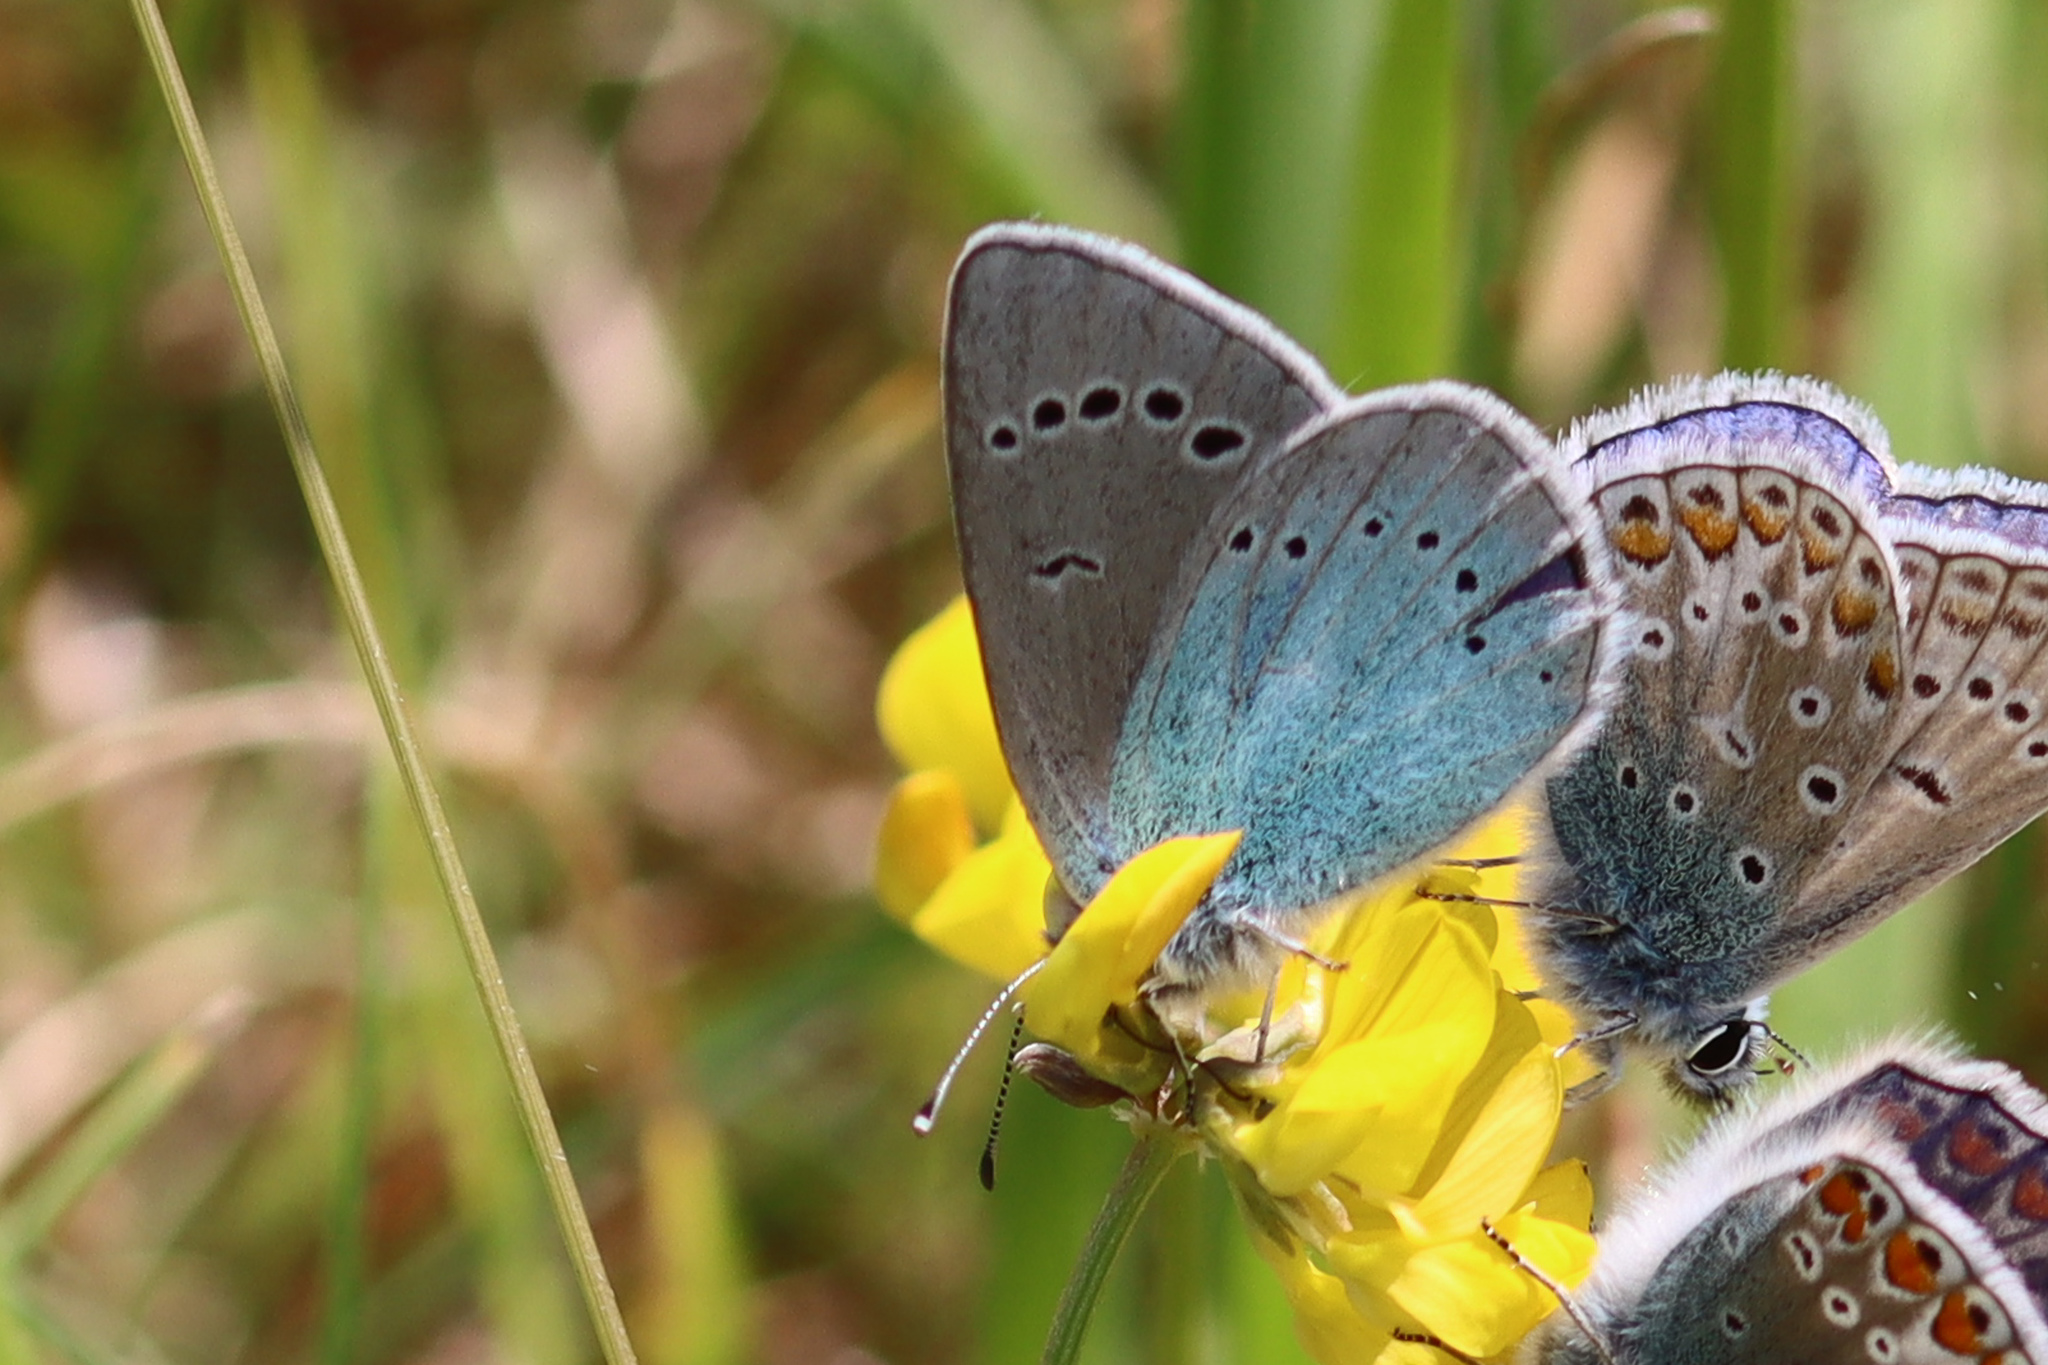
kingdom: Animalia
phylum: Arthropoda
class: Insecta
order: Lepidoptera
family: Lycaenidae
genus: Glaucopsyche
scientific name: Glaucopsyche alexis
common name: Green-underside blue
